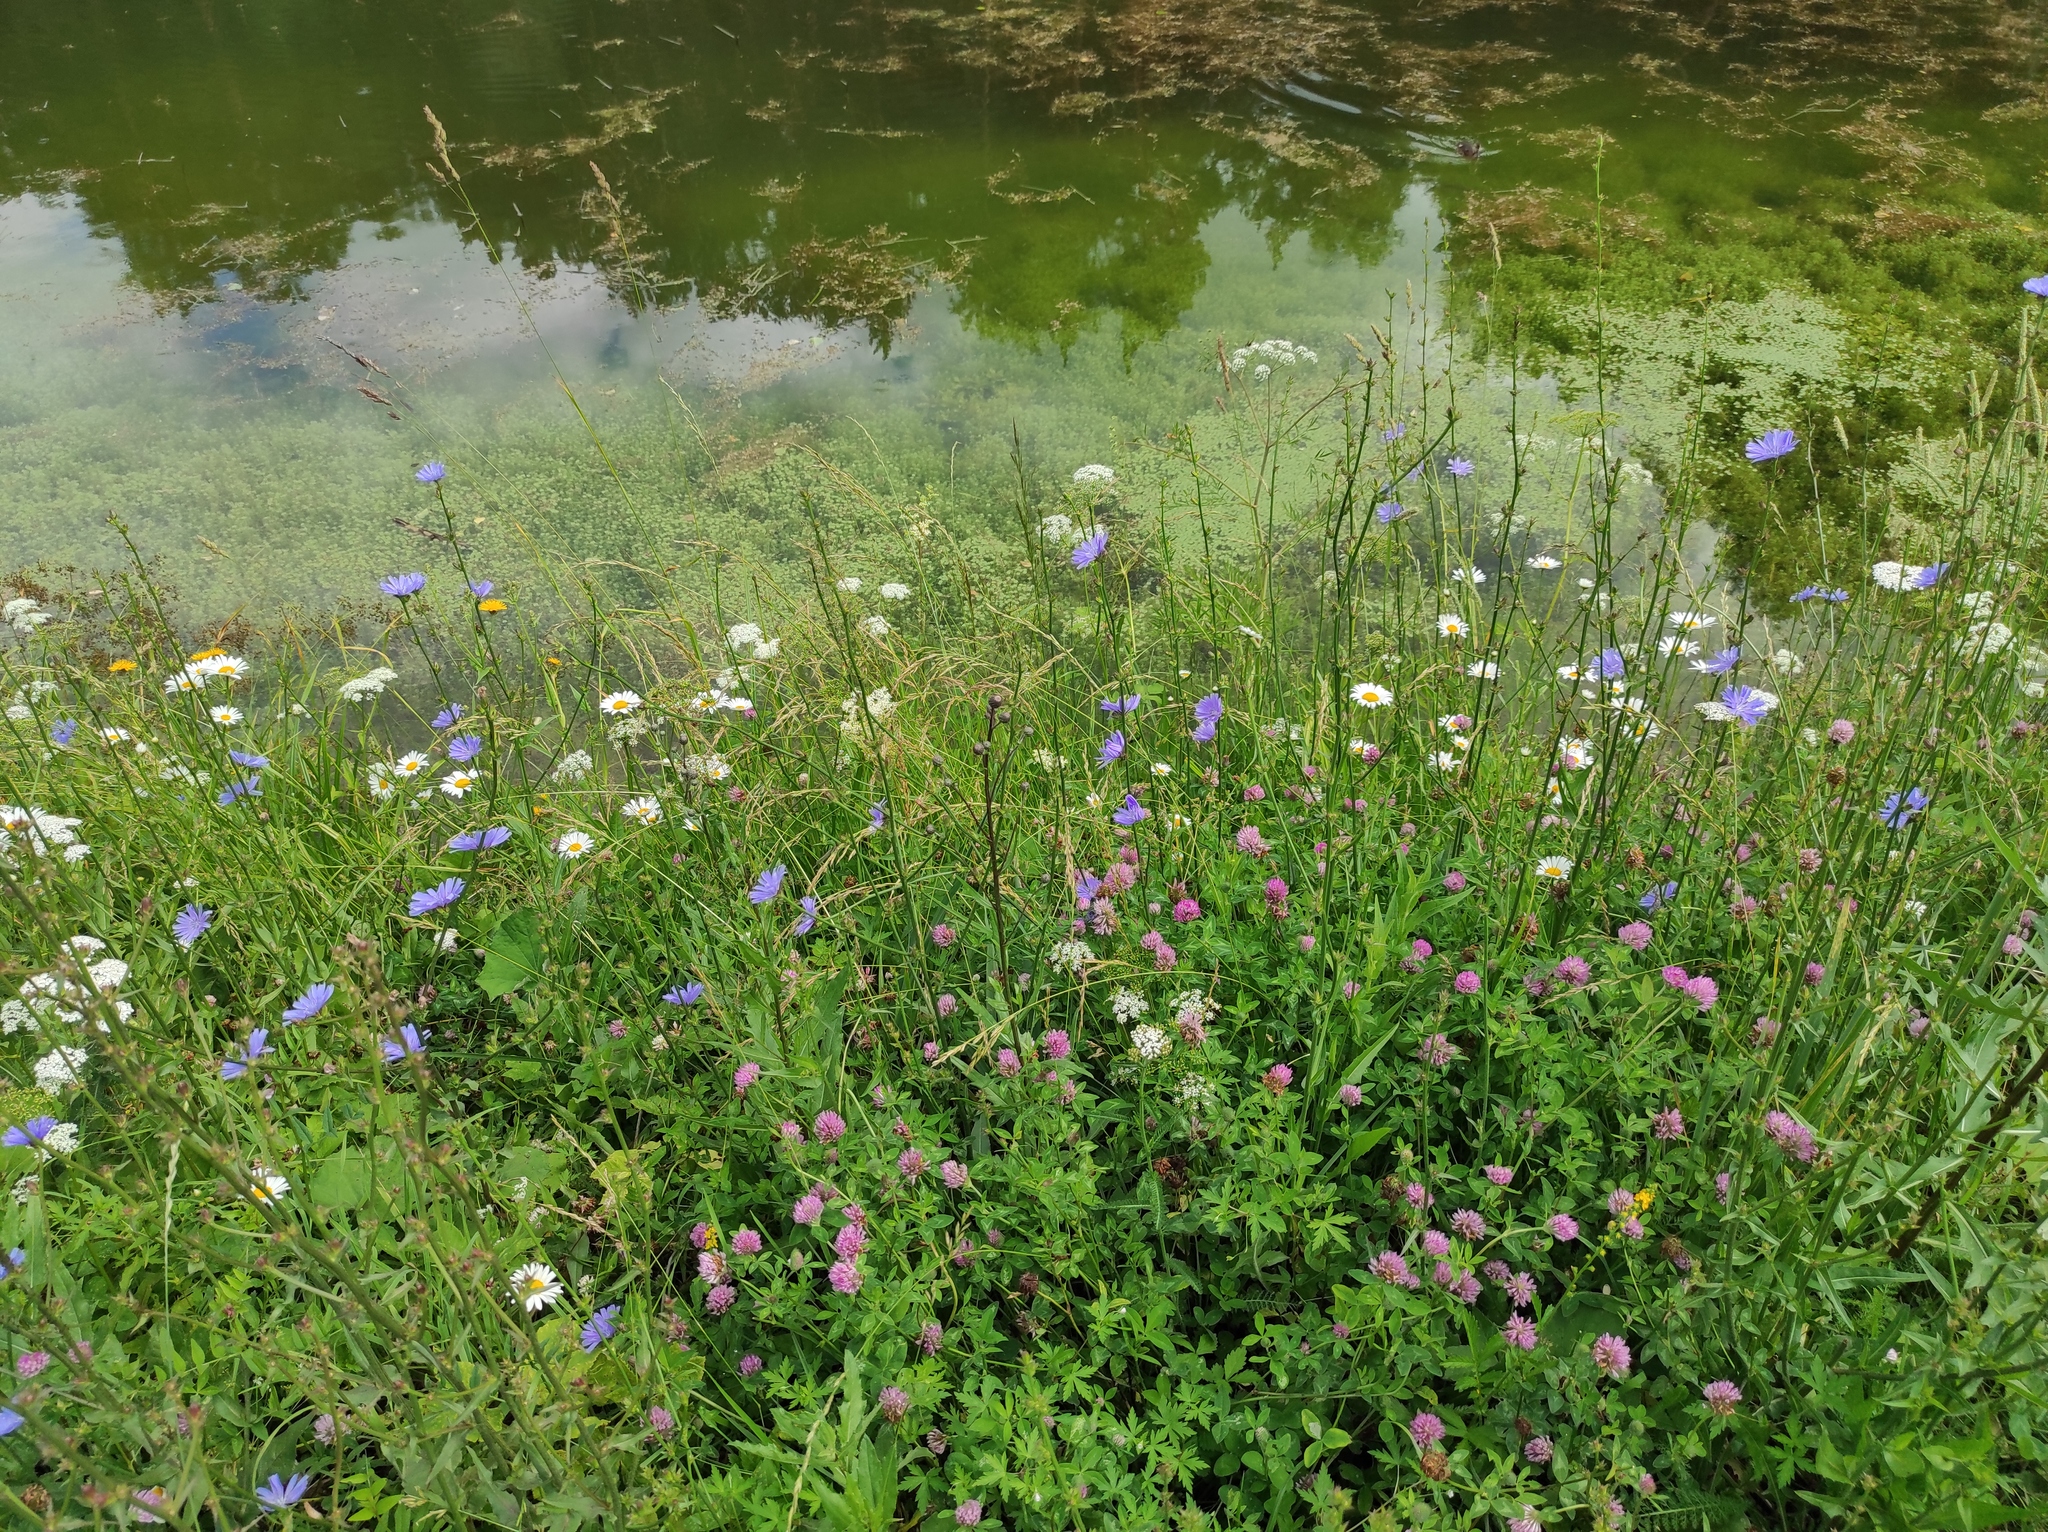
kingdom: Plantae
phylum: Tracheophyta
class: Magnoliopsida
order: Fabales
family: Fabaceae
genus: Trifolium
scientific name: Trifolium pratense
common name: Red clover
